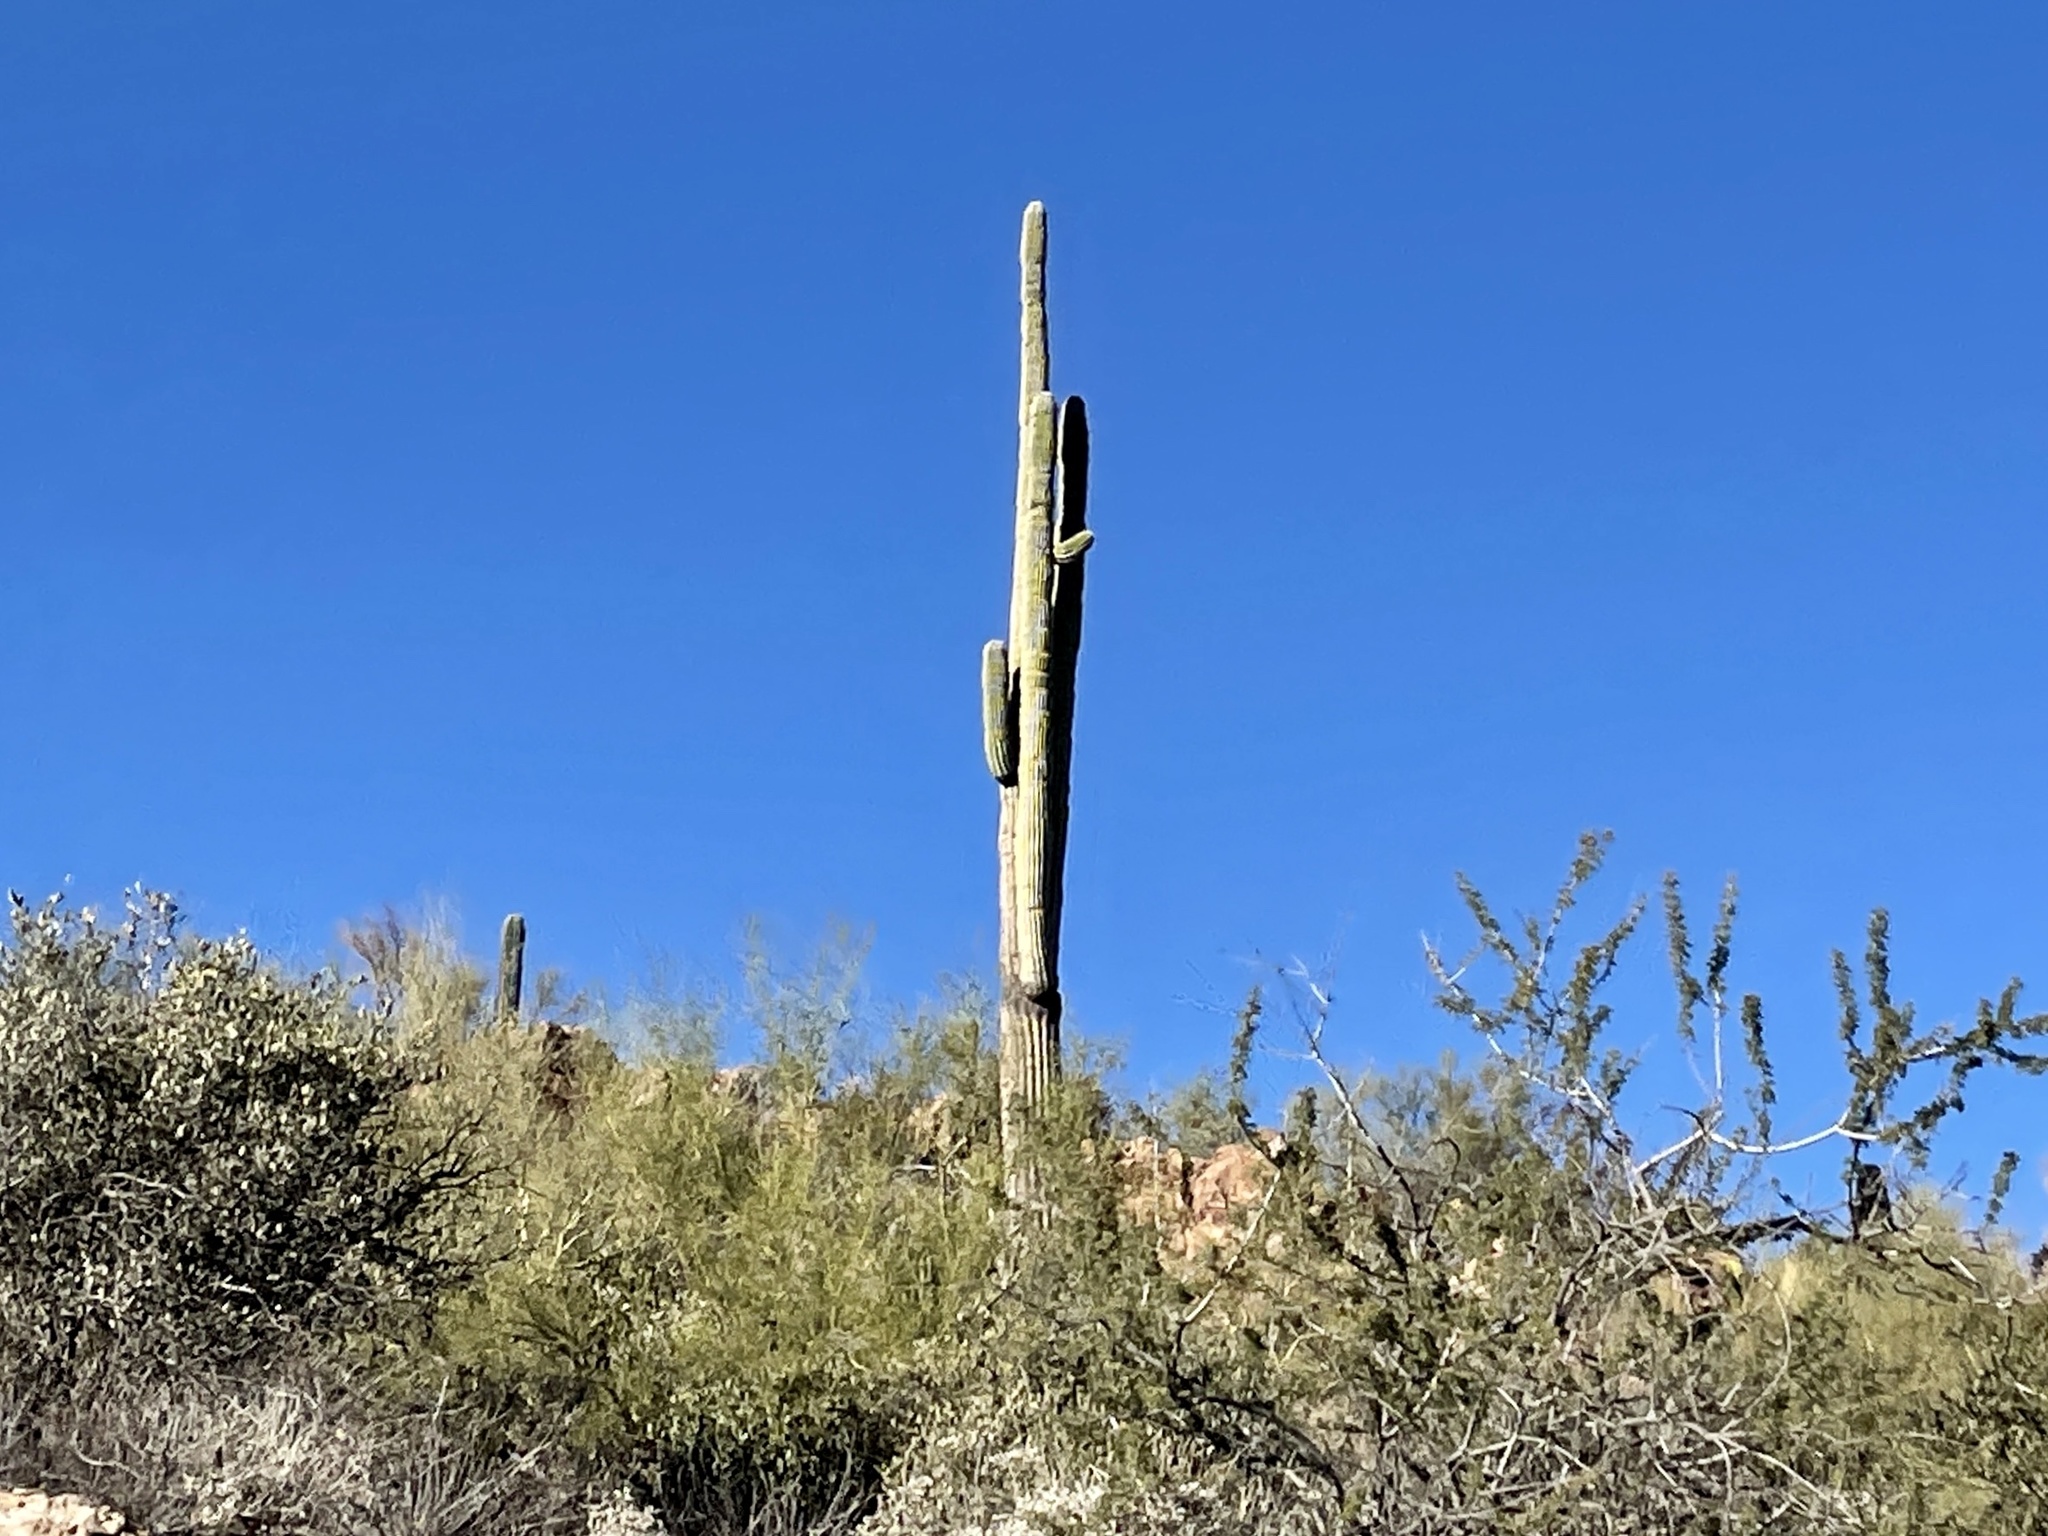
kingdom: Plantae
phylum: Tracheophyta
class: Magnoliopsida
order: Caryophyllales
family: Cactaceae
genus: Carnegiea
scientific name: Carnegiea gigantea
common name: Saguaro
